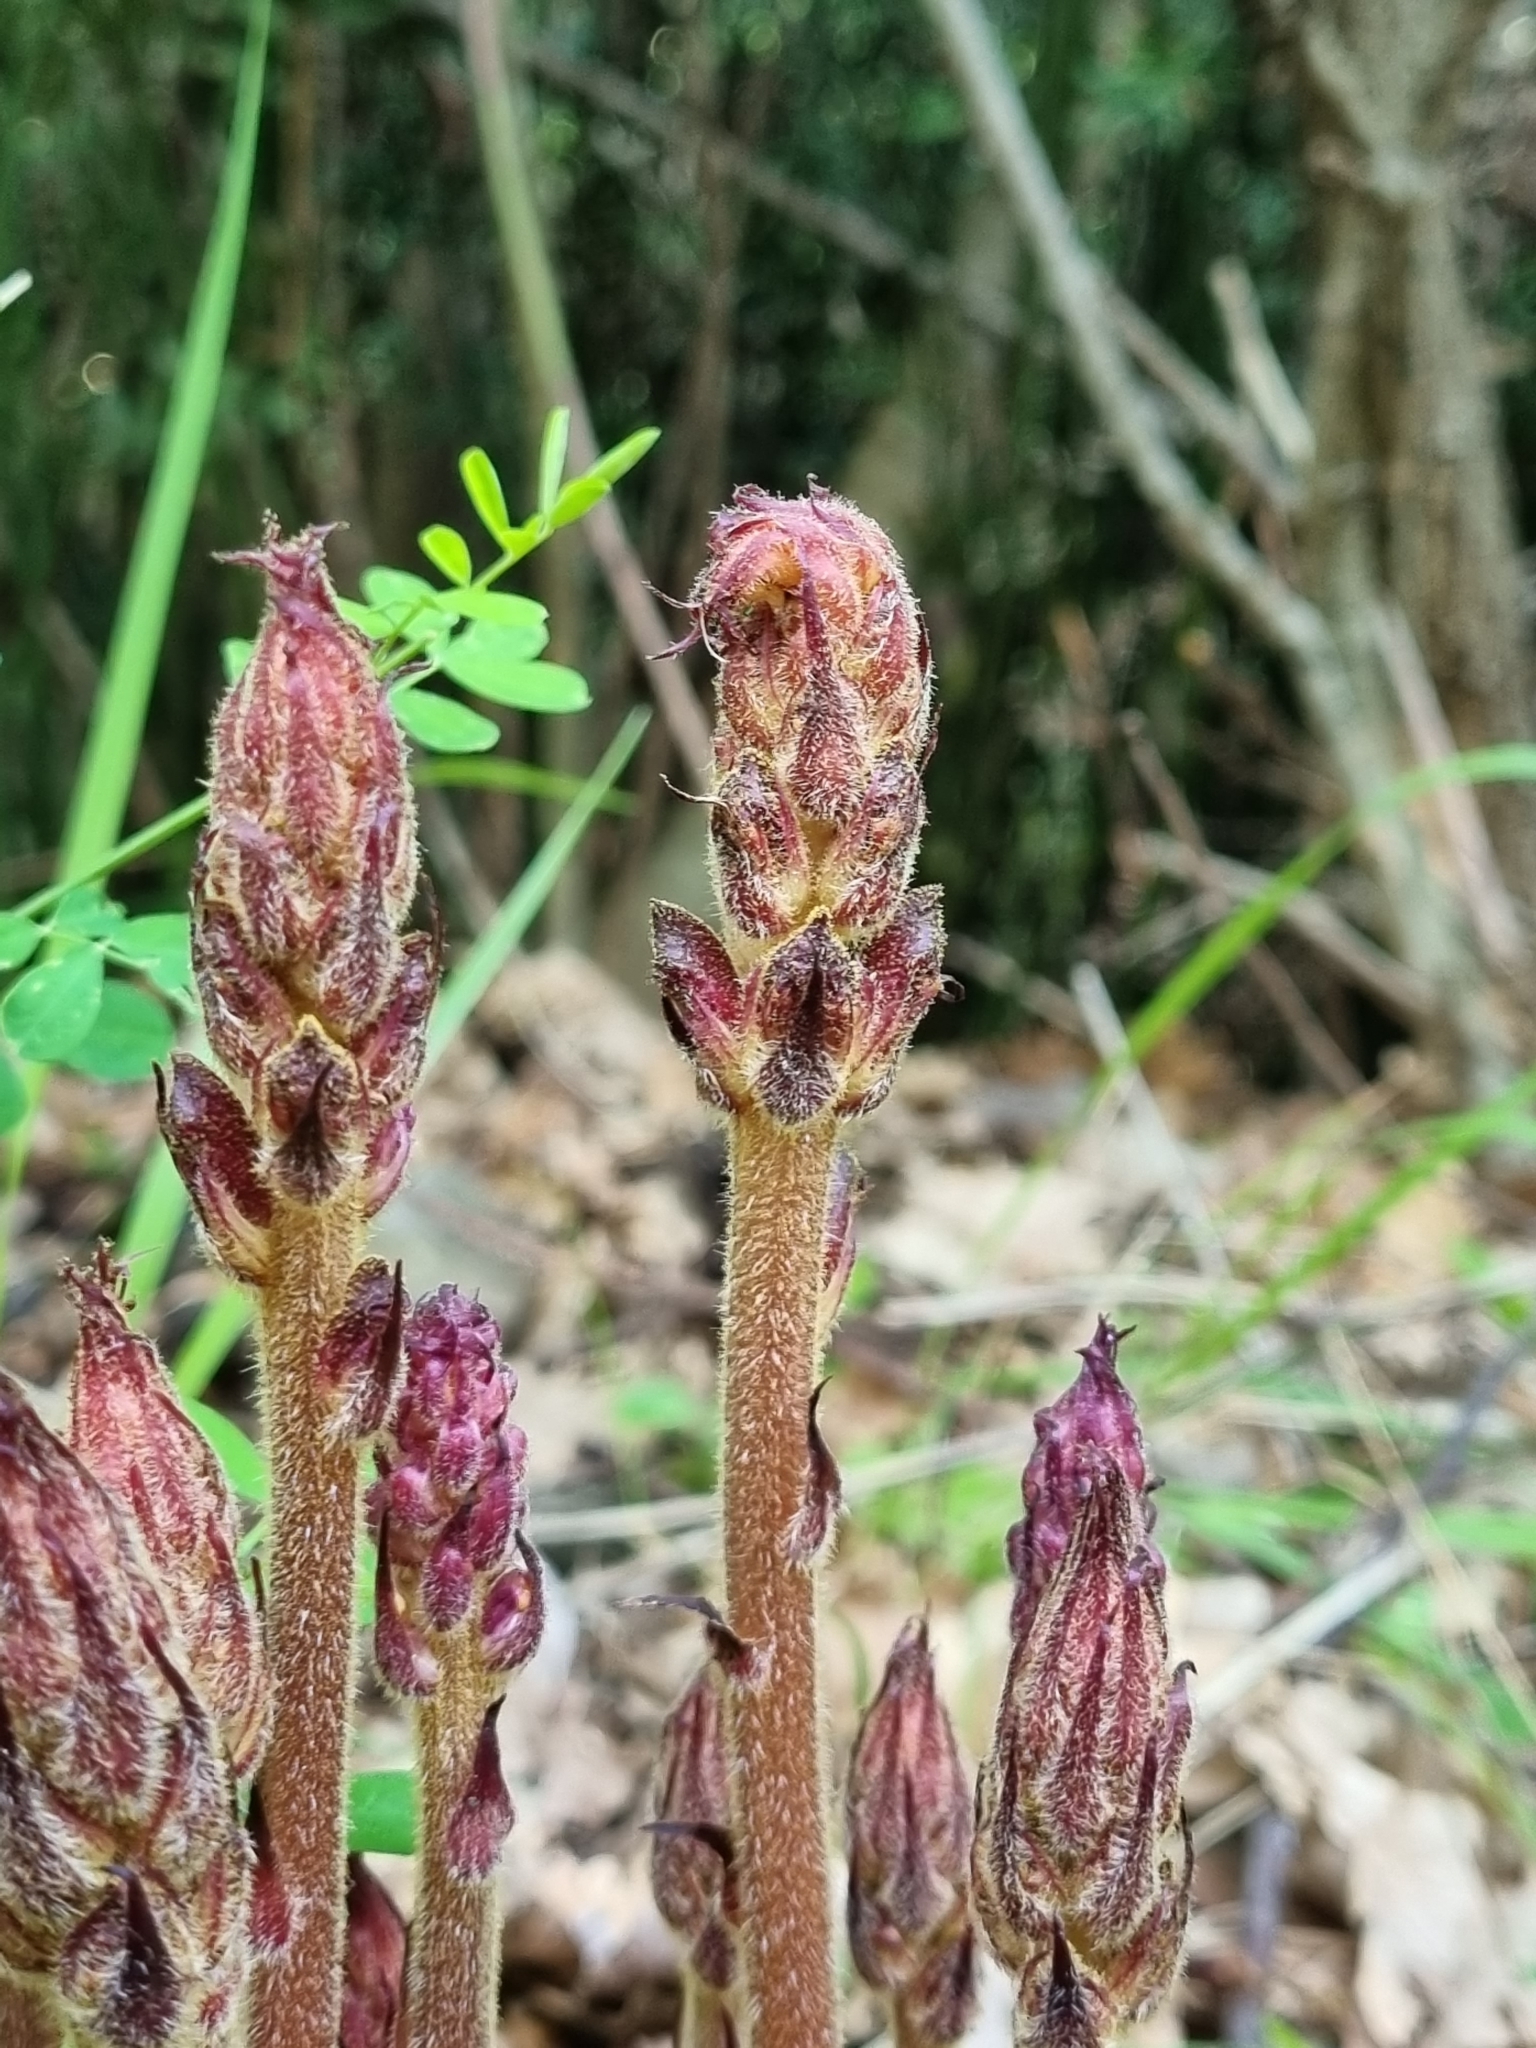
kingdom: Plantae
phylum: Tracheophyta
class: Magnoliopsida
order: Lamiales
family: Orobanchaceae
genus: Orobanche
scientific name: Orobanche gracilis
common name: Slender broomrape
